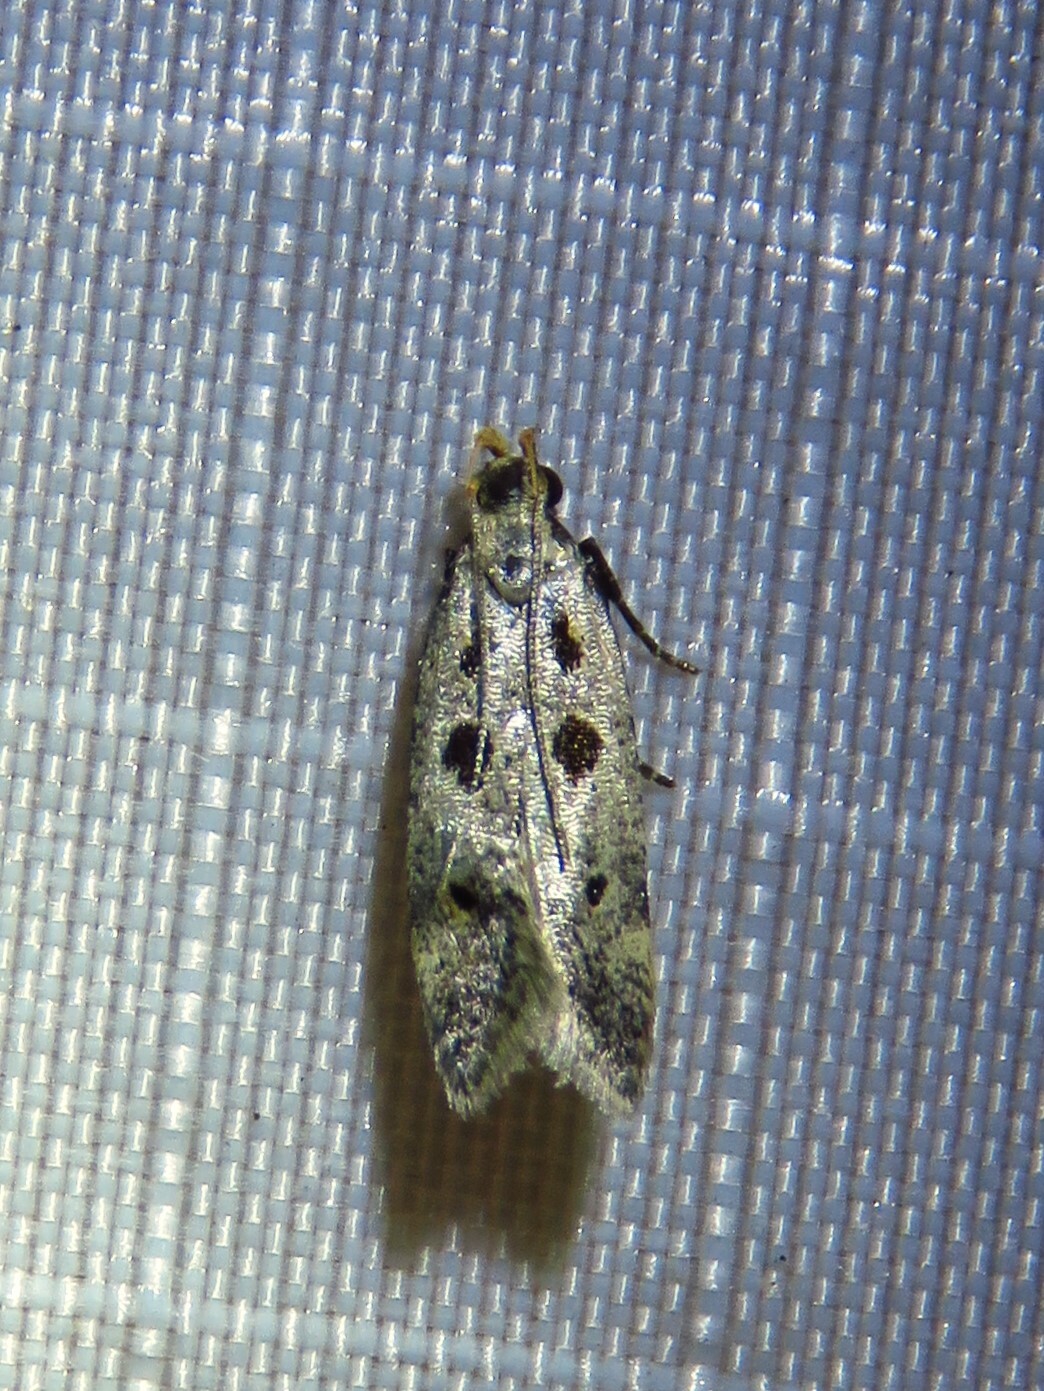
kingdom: Animalia
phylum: Arthropoda
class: Insecta
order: Lepidoptera
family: Gelechiidae
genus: Deltophora
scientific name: Deltophora sella
